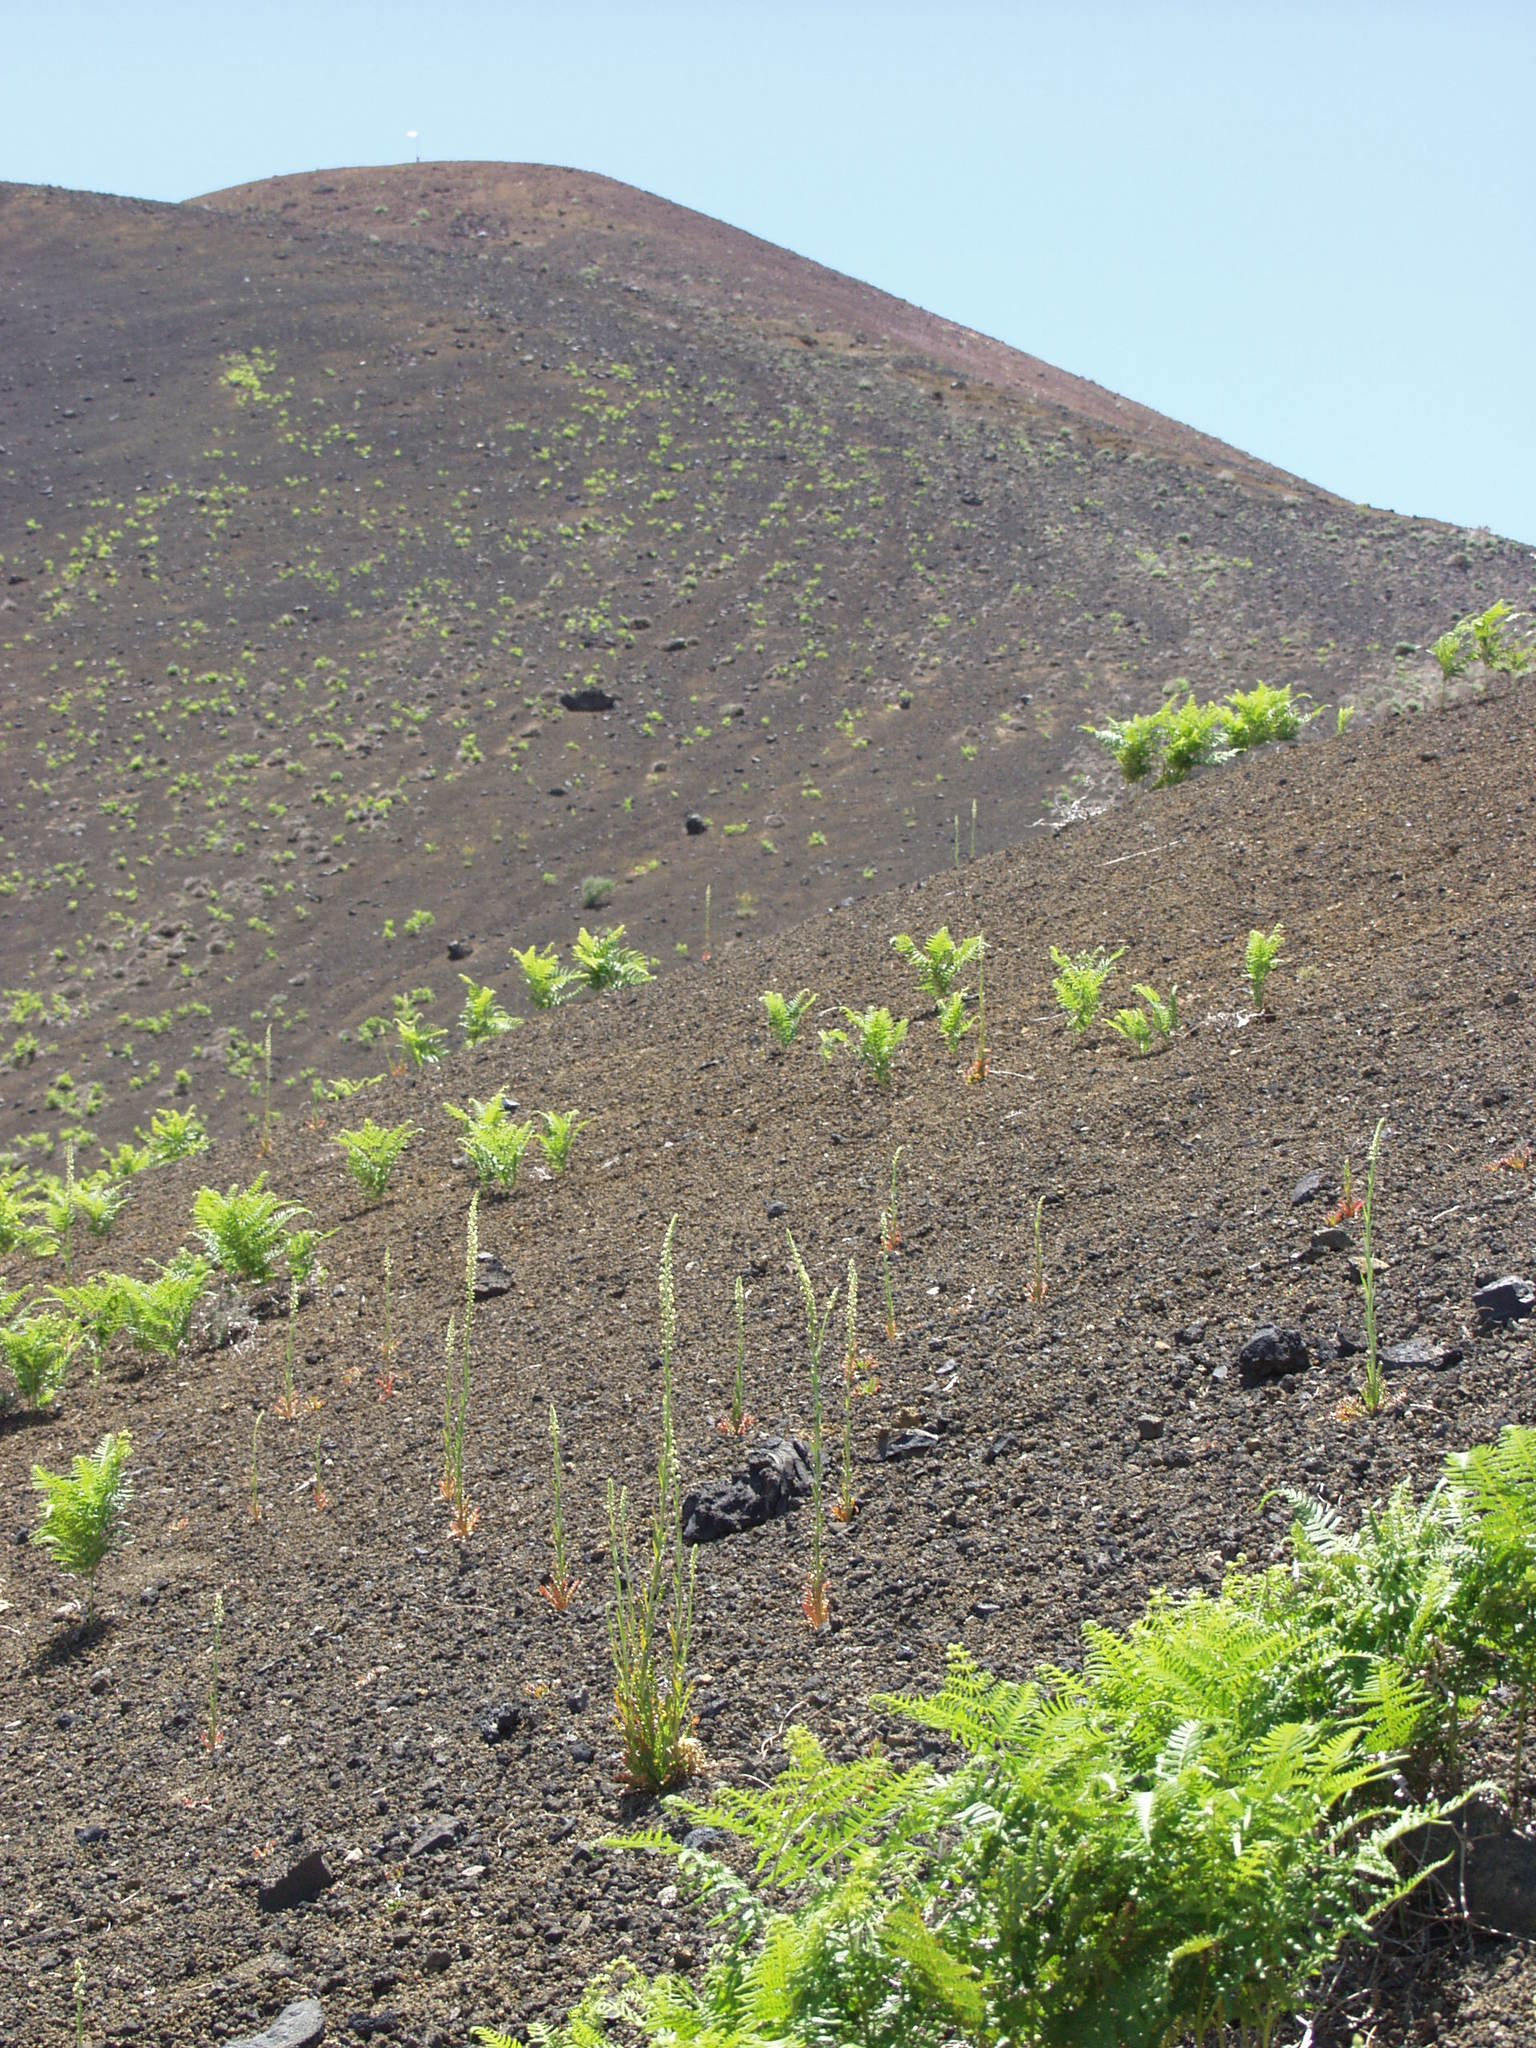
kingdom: Plantae
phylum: Tracheophyta
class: Polypodiopsida
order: Polypodiales
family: Dennstaedtiaceae
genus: Pteridium
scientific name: Pteridium aquilinum
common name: Bracken
